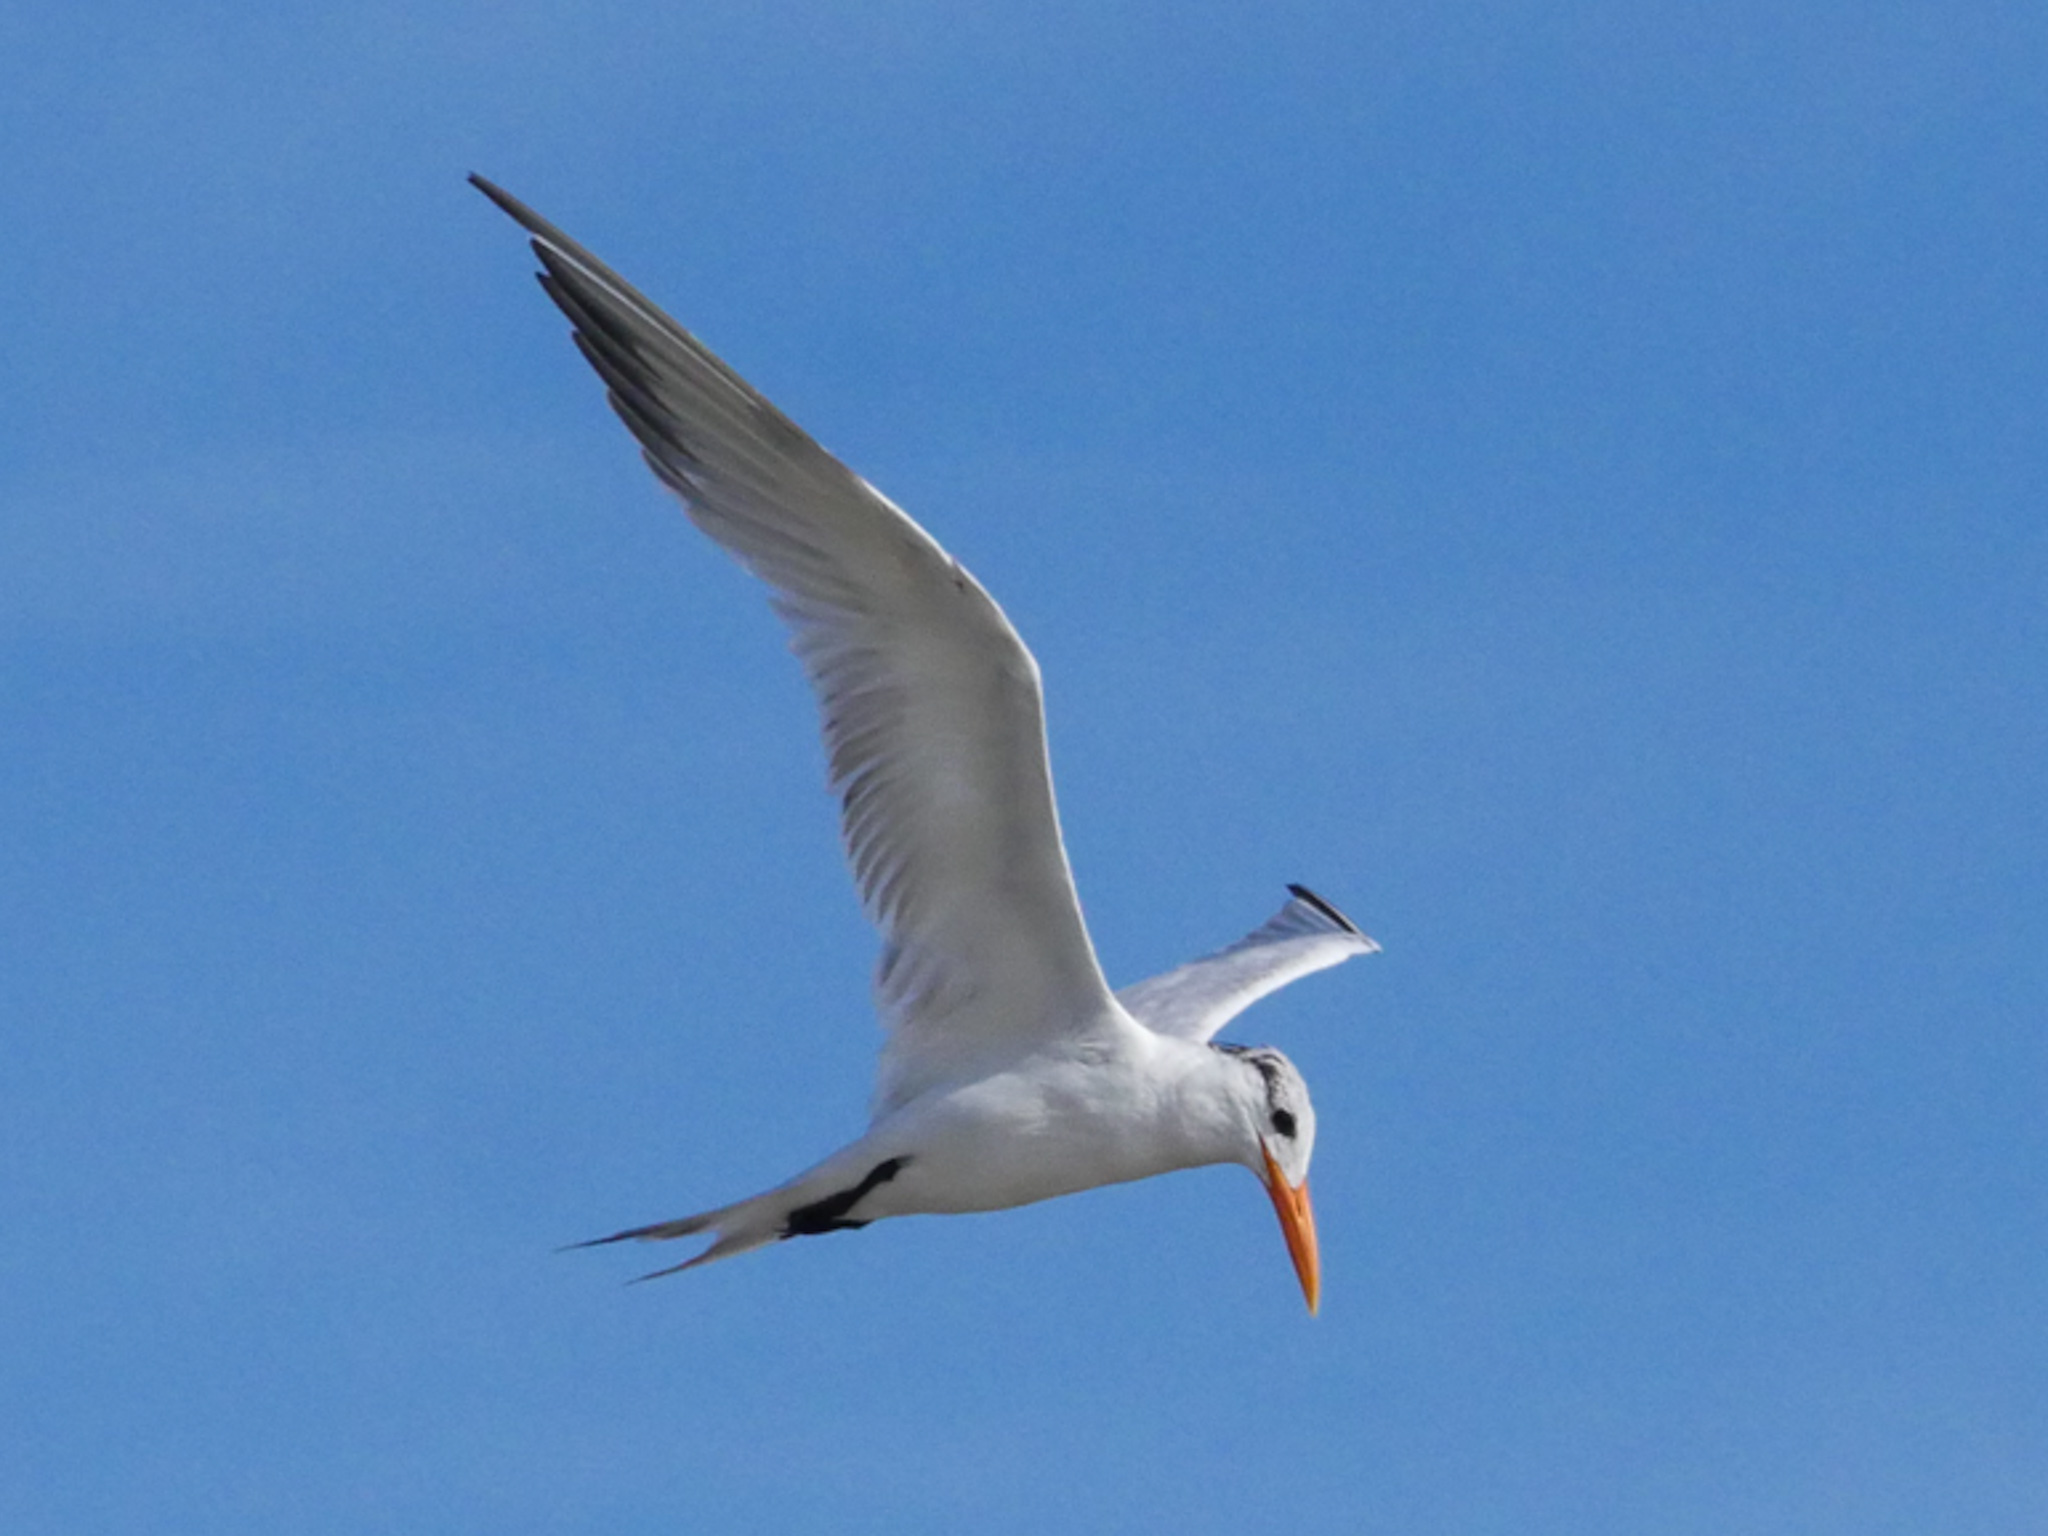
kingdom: Animalia
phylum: Chordata
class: Aves
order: Charadriiformes
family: Laridae
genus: Thalasseus
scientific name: Thalasseus maximus
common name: Royal tern
